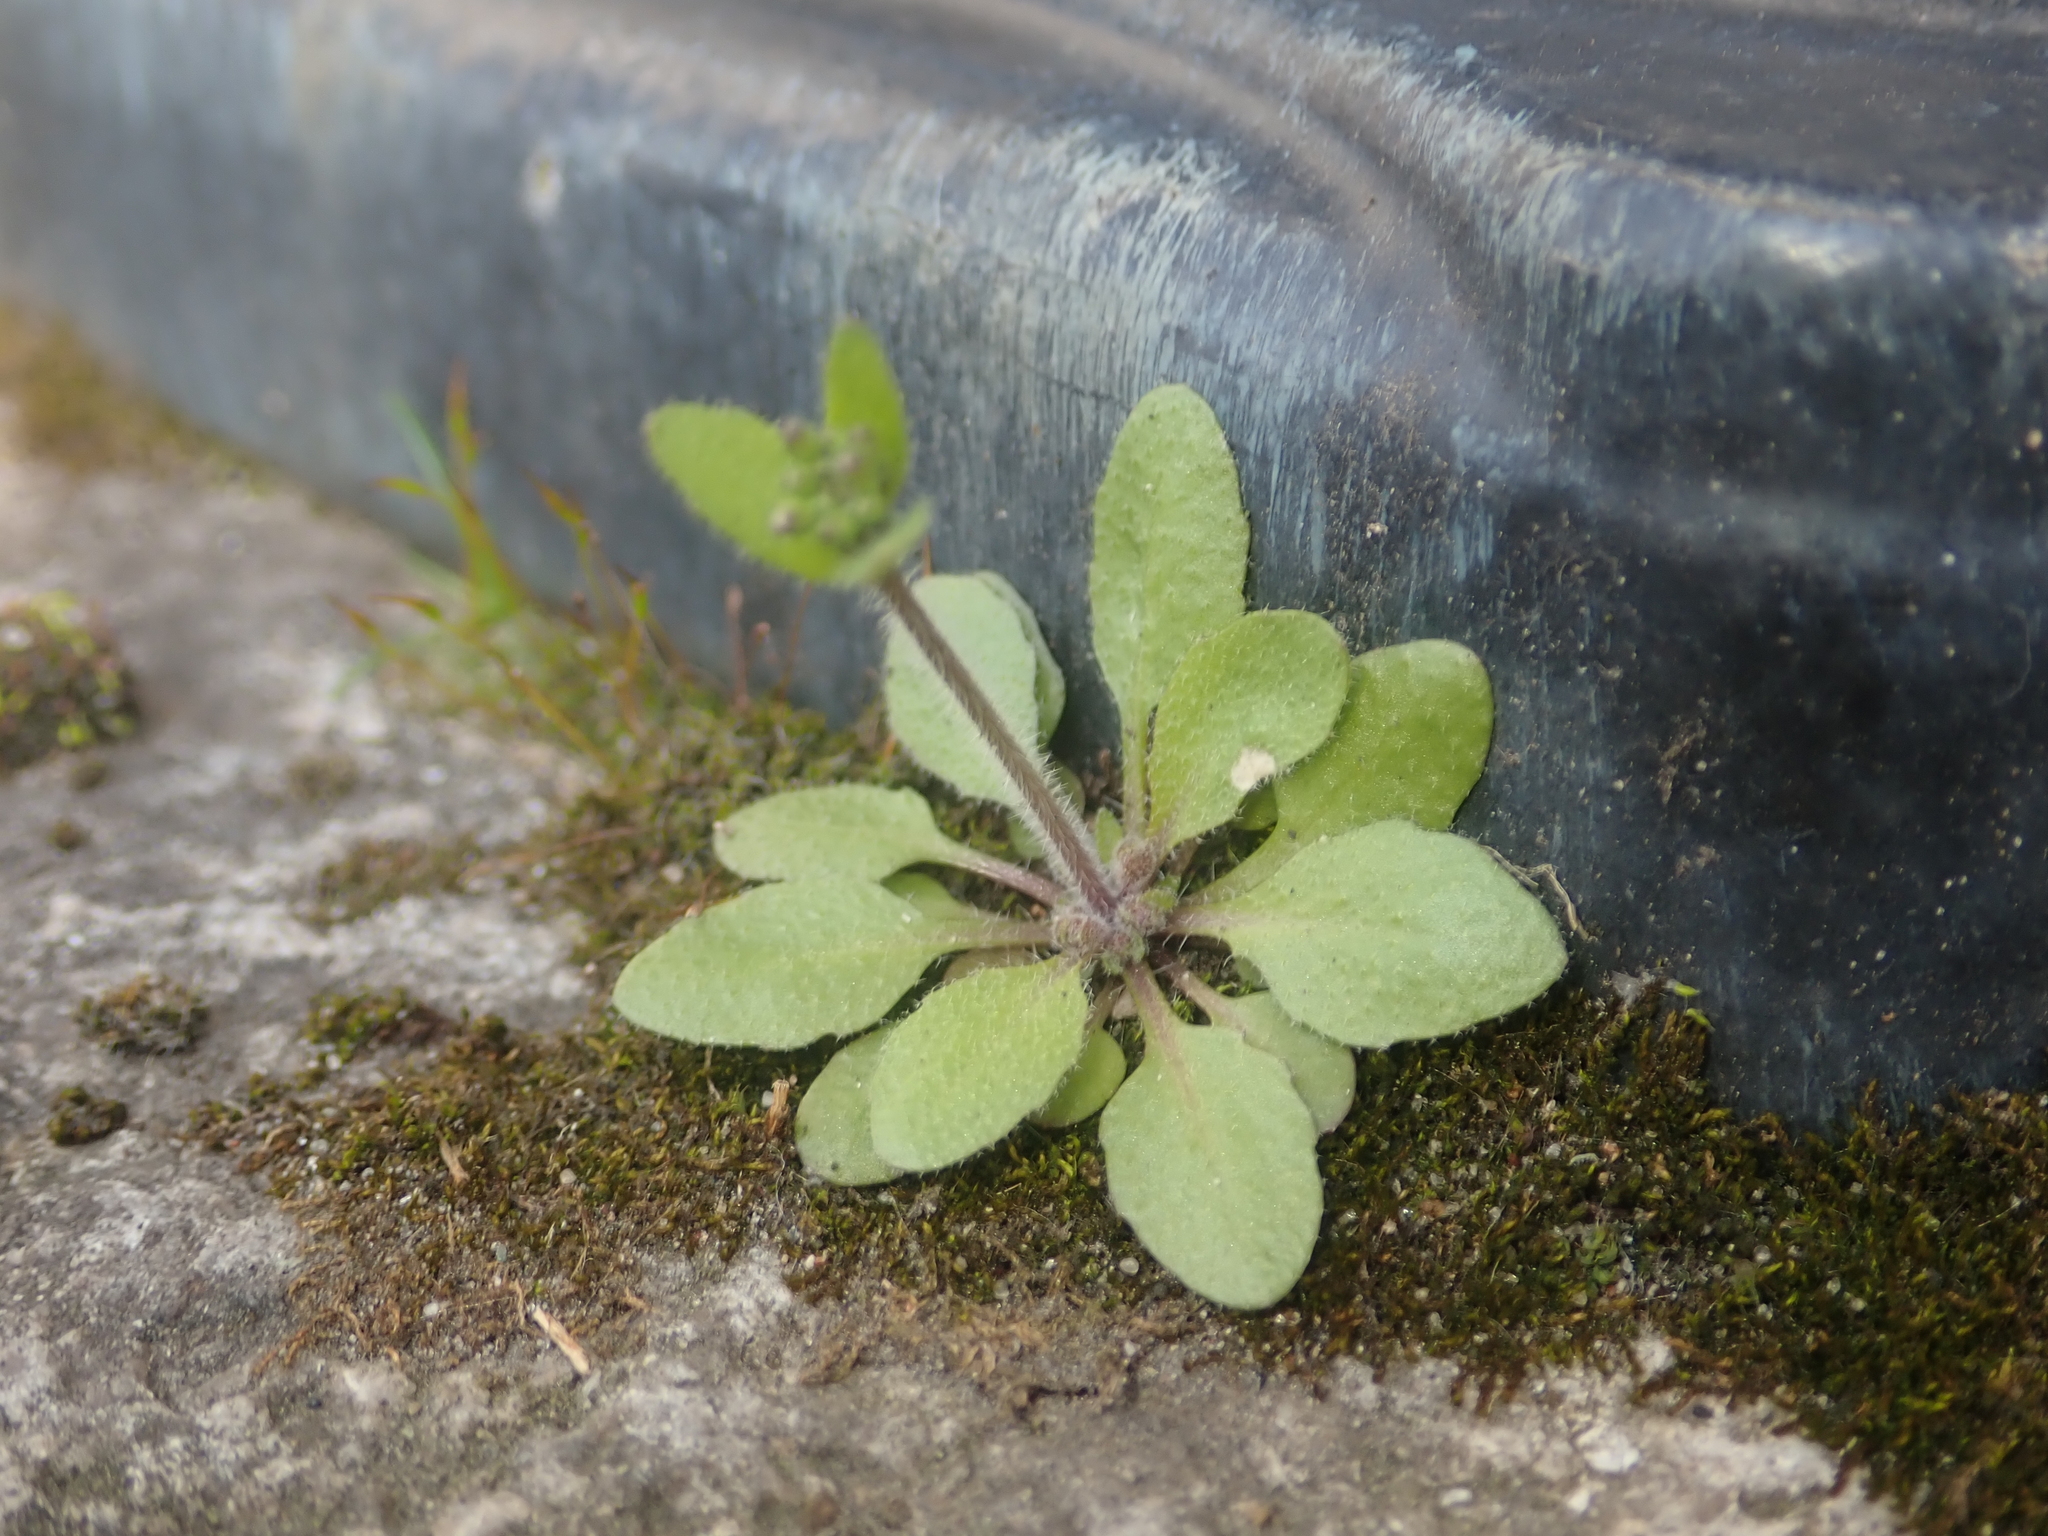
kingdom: Plantae
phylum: Tracheophyta
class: Magnoliopsida
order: Brassicales
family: Brassicaceae
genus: Arabidopsis
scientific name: Arabidopsis thaliana
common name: Thale cress
